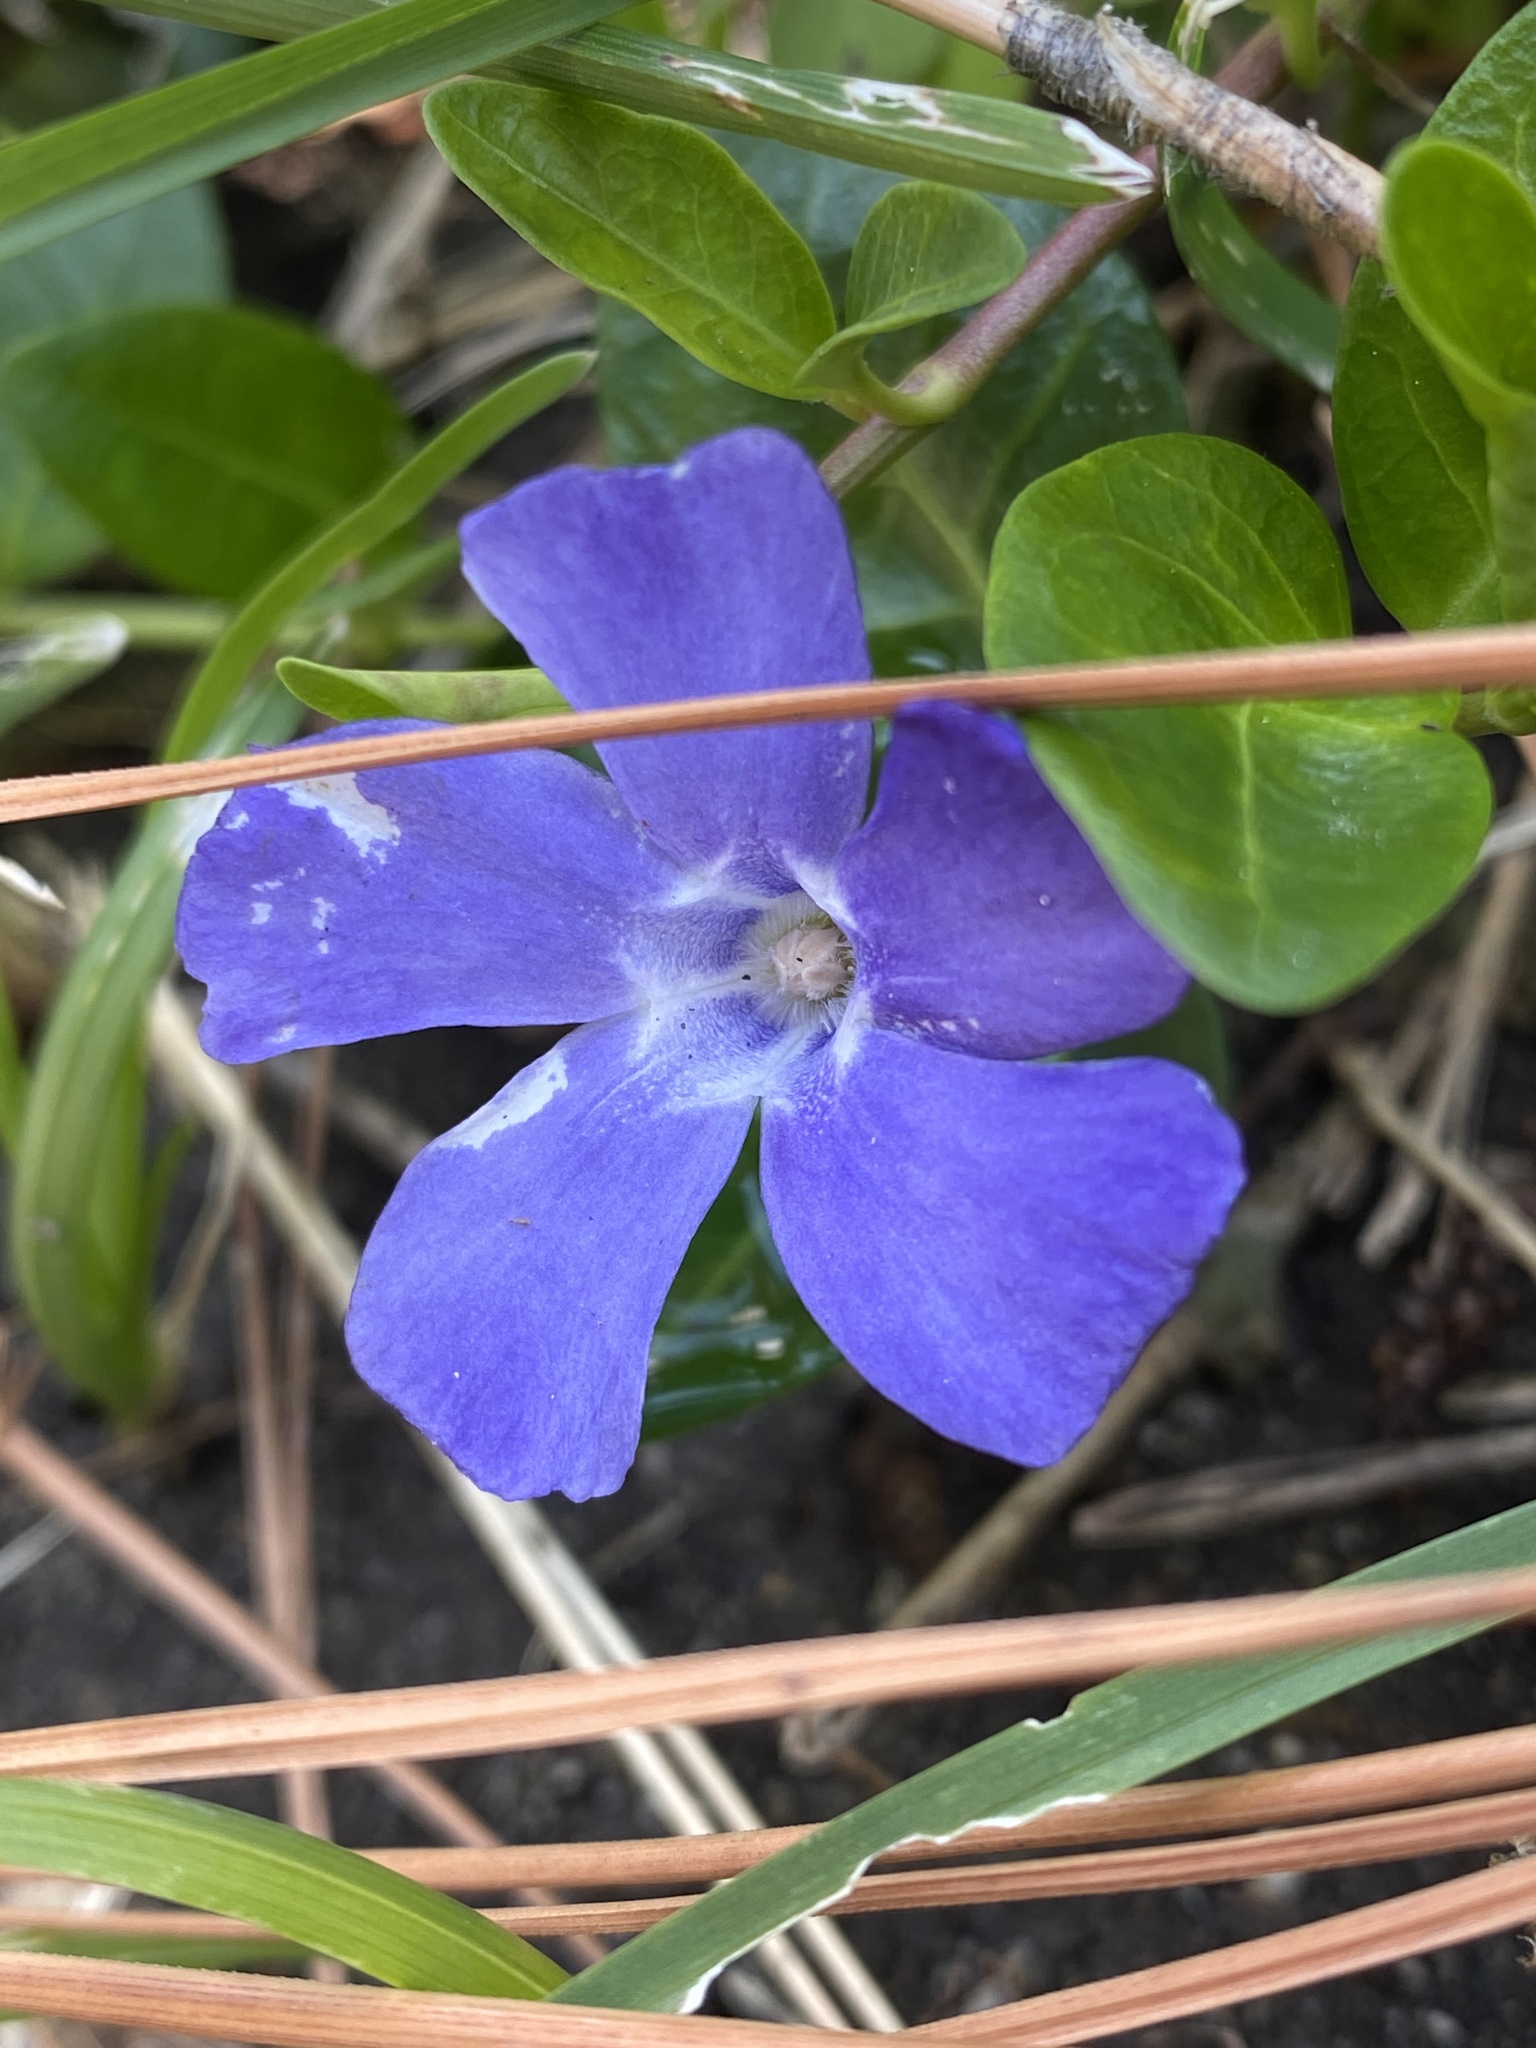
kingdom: Plantae
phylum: Tracheophyta
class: Magnoliopsida
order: Gentianales
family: Apocynaceae
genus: Vinca
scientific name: Vinca minor
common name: Lesser periwinkle
